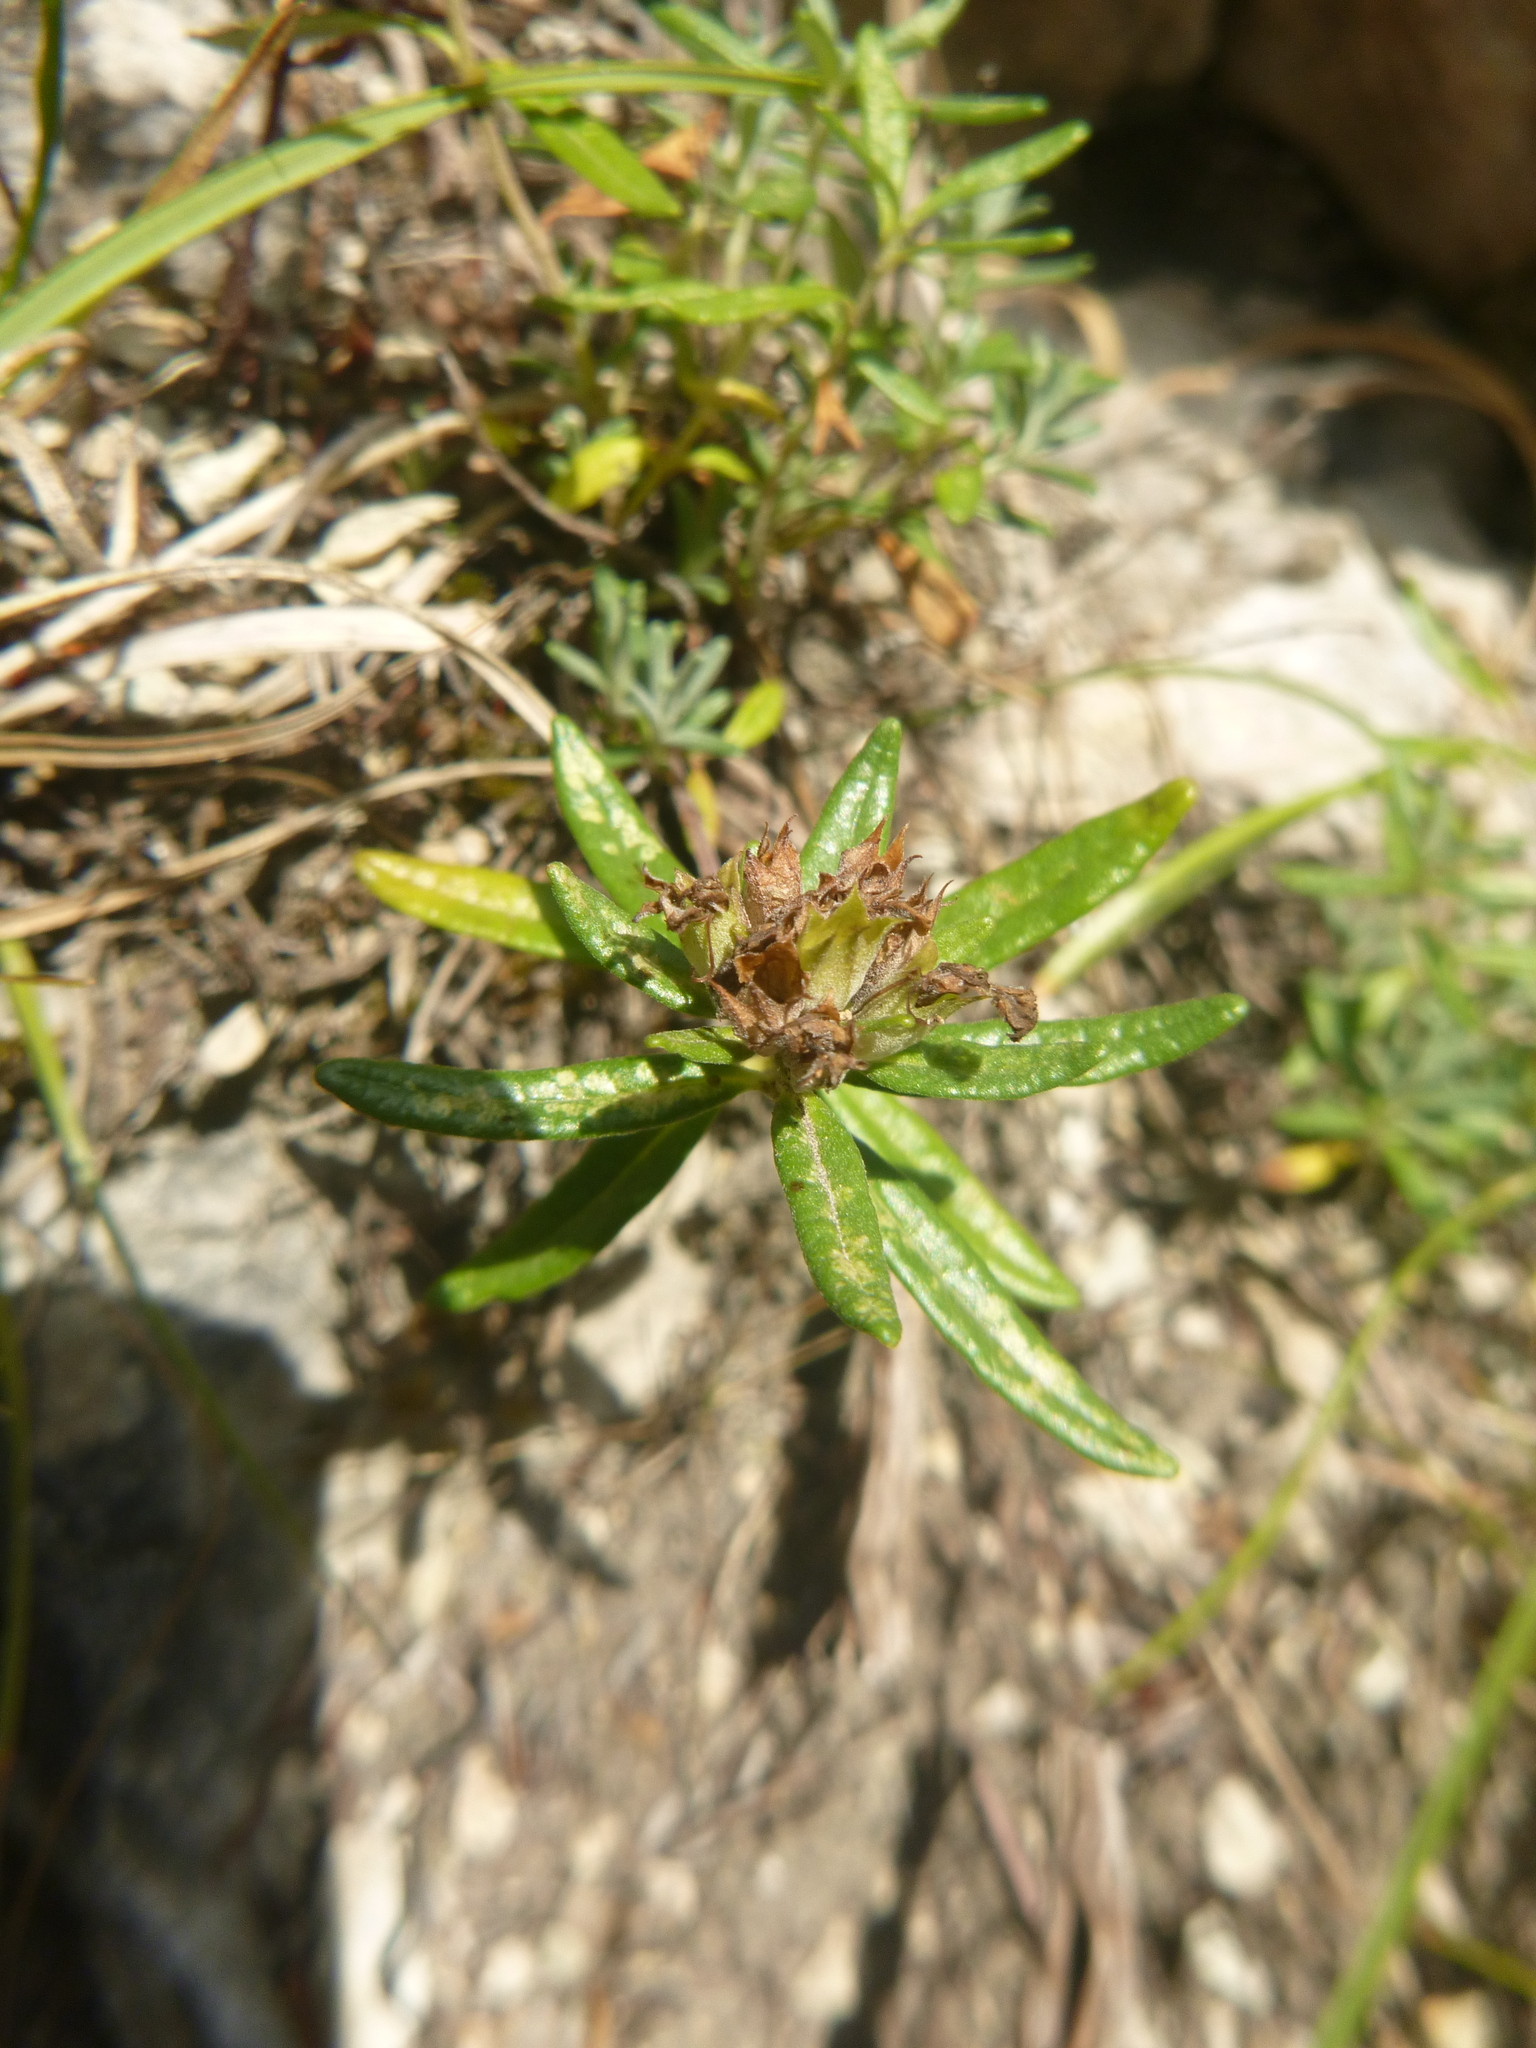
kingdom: Plantae
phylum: Tracheophyta
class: Magnoliopsida
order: Lamiales
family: Lamiaceae
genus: Teucrium
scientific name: Teucrium montanum
